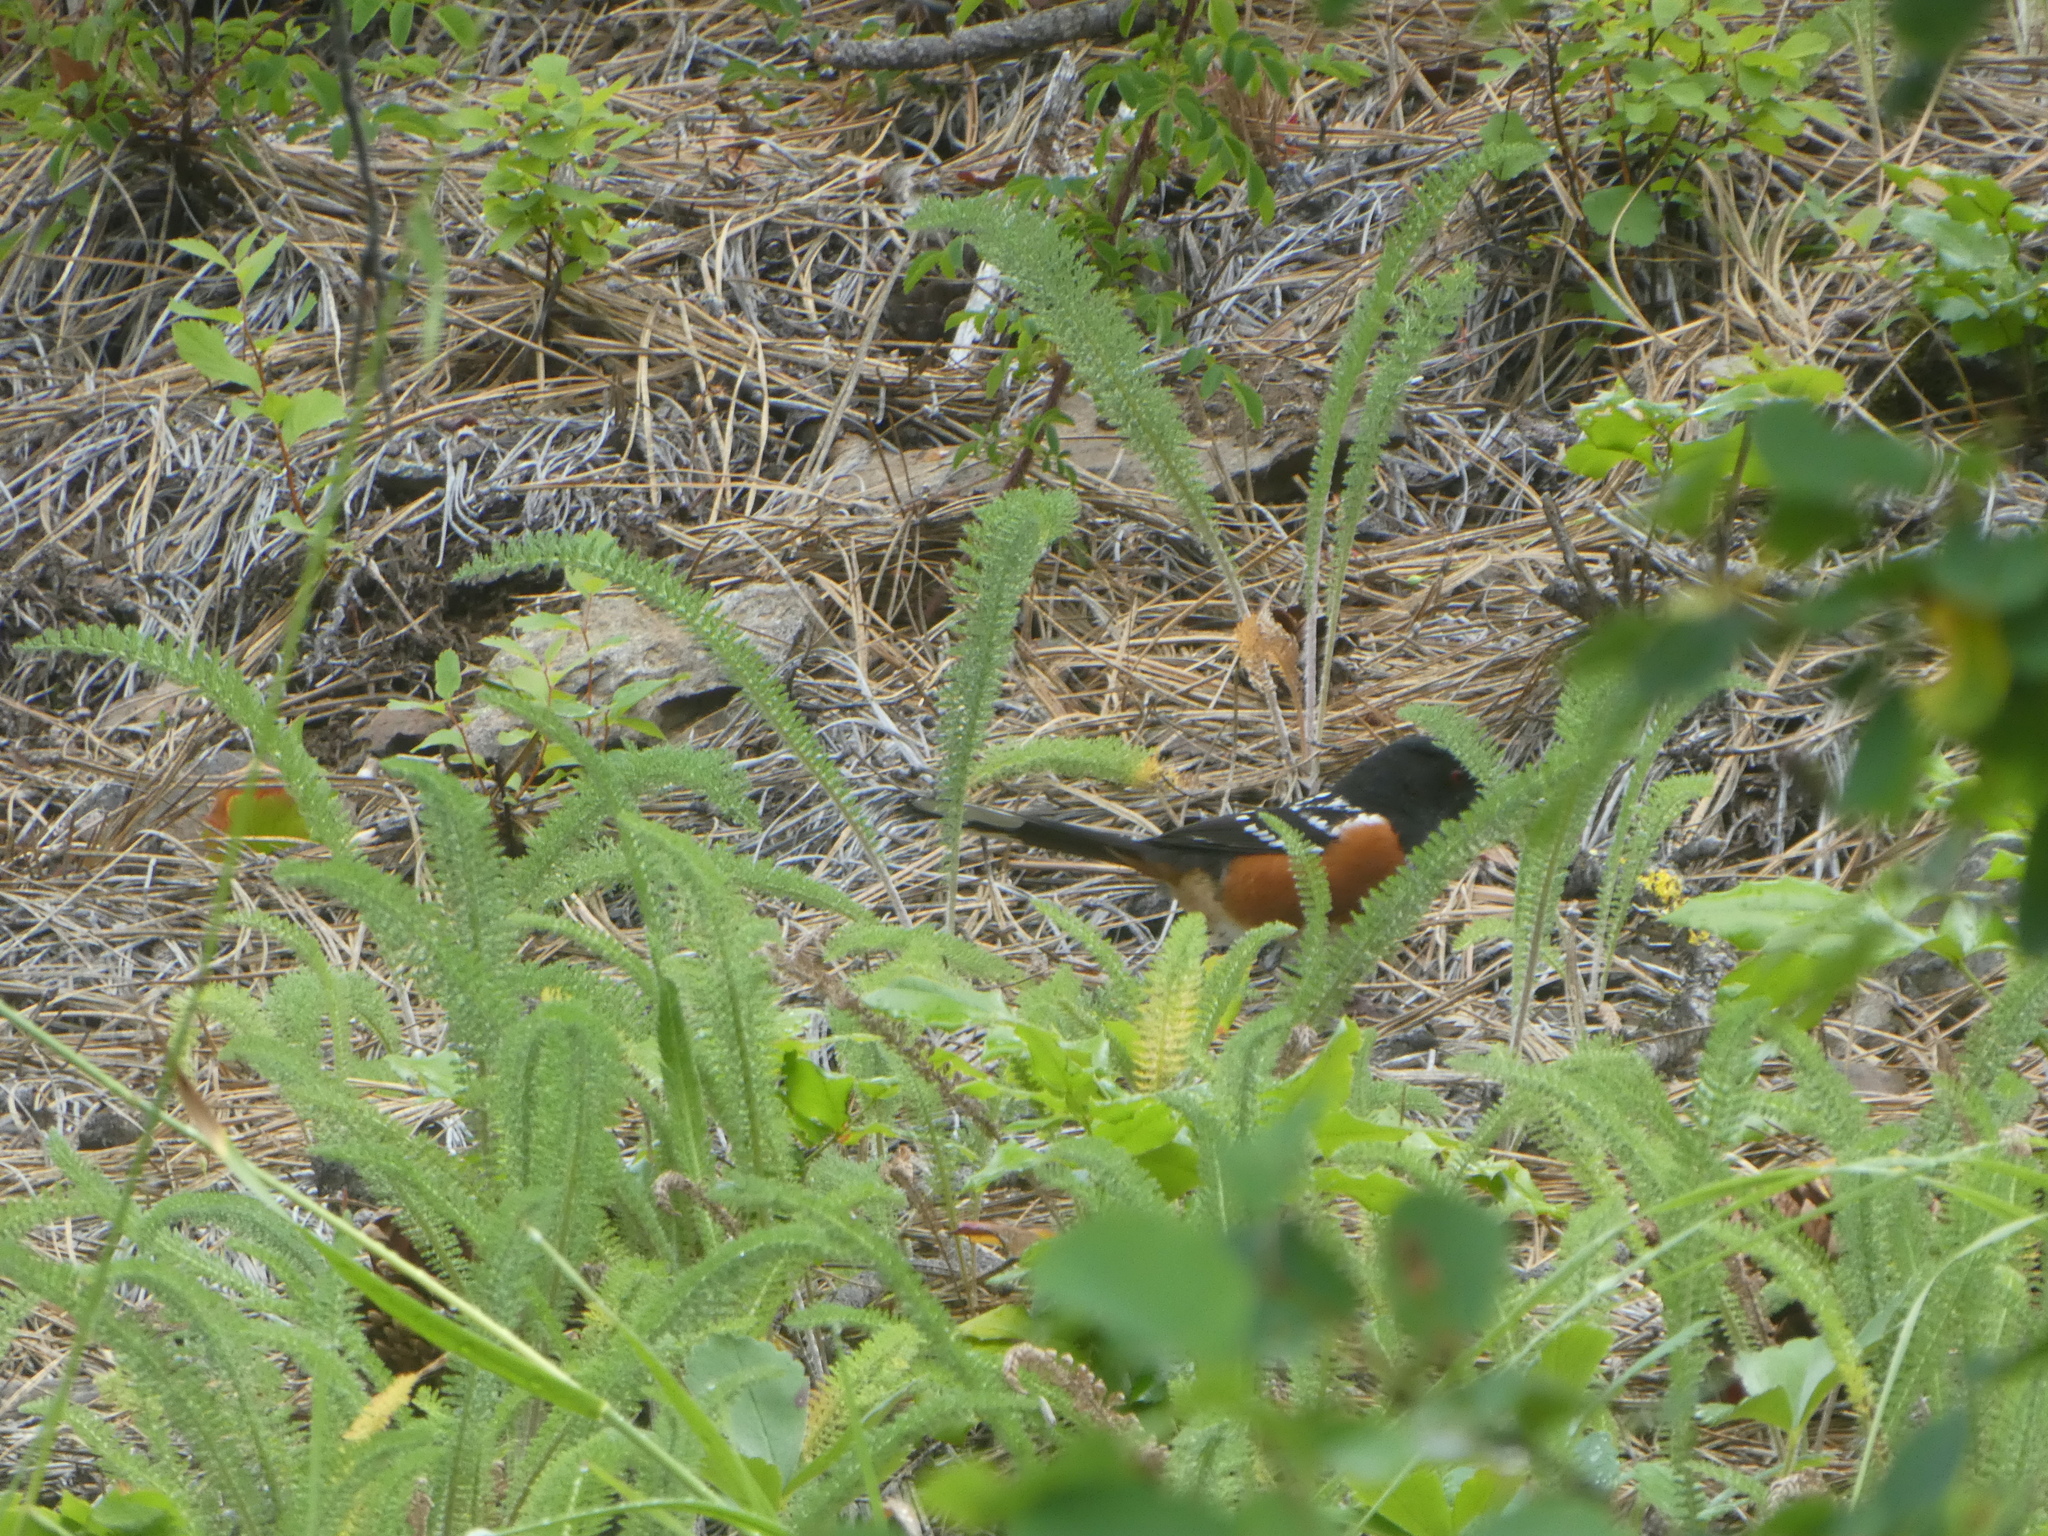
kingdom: Animalia
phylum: Chordata
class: Aves
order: Passeriformes
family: Passerellidae
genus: Pipilo
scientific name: Pipilo maculatus
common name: Spotted towhee
